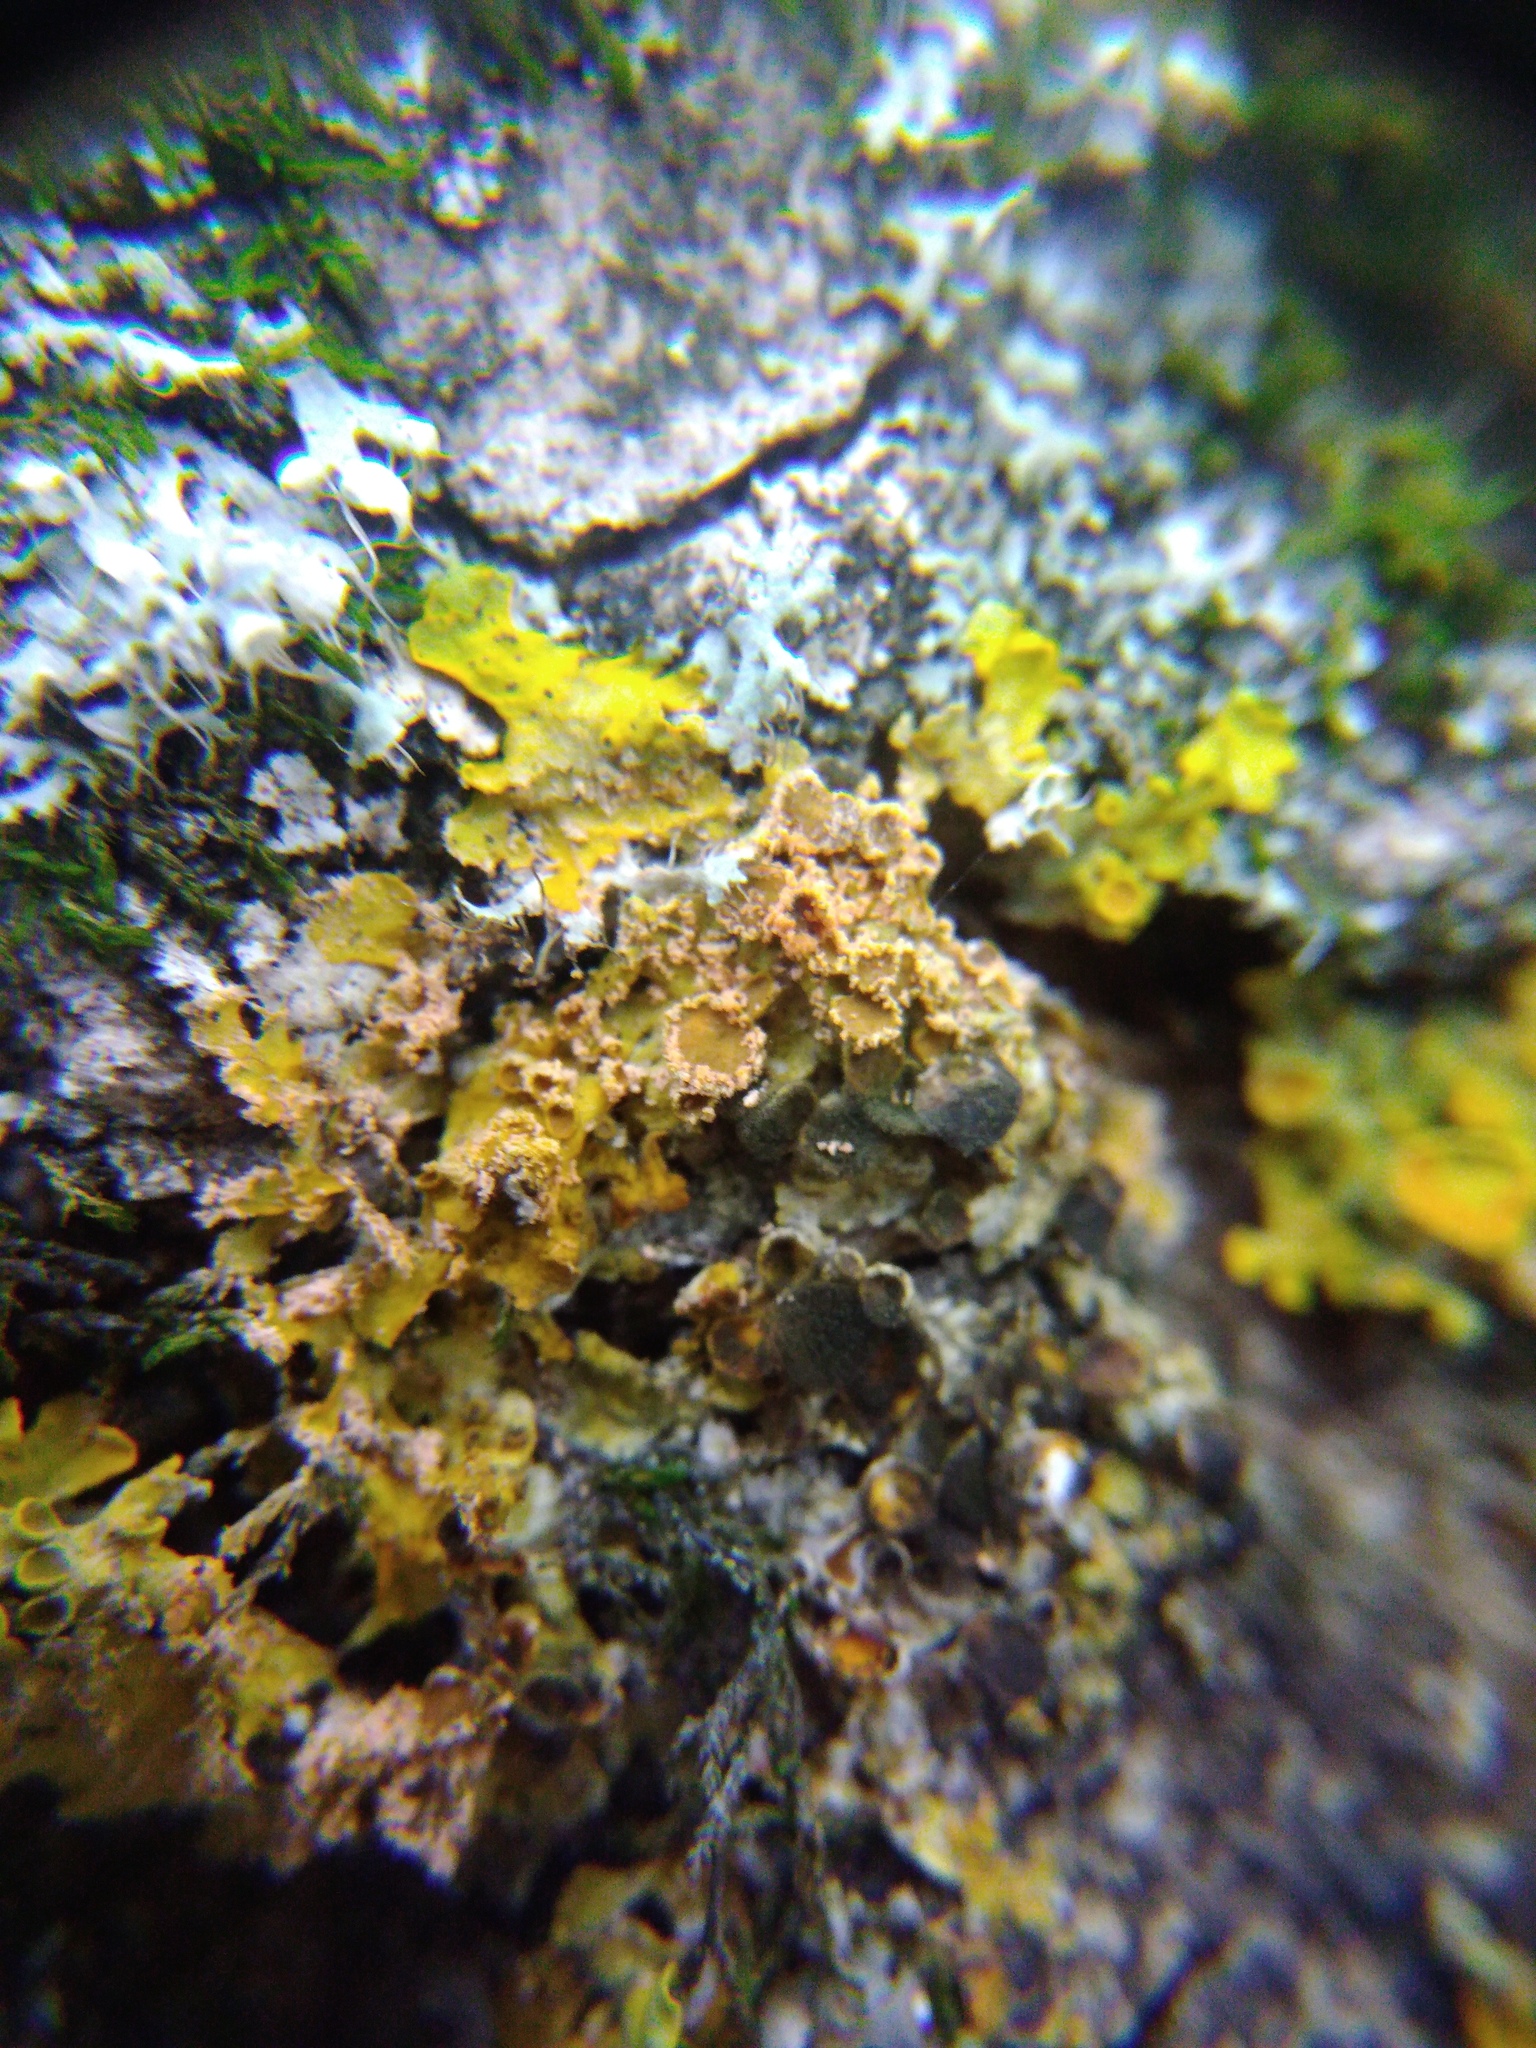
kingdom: Fungi
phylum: Basidiomycota
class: Agaricomycetes
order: Corticiales
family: Corticiaceae
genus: Erythricium
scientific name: Erythricium aurantiacum
